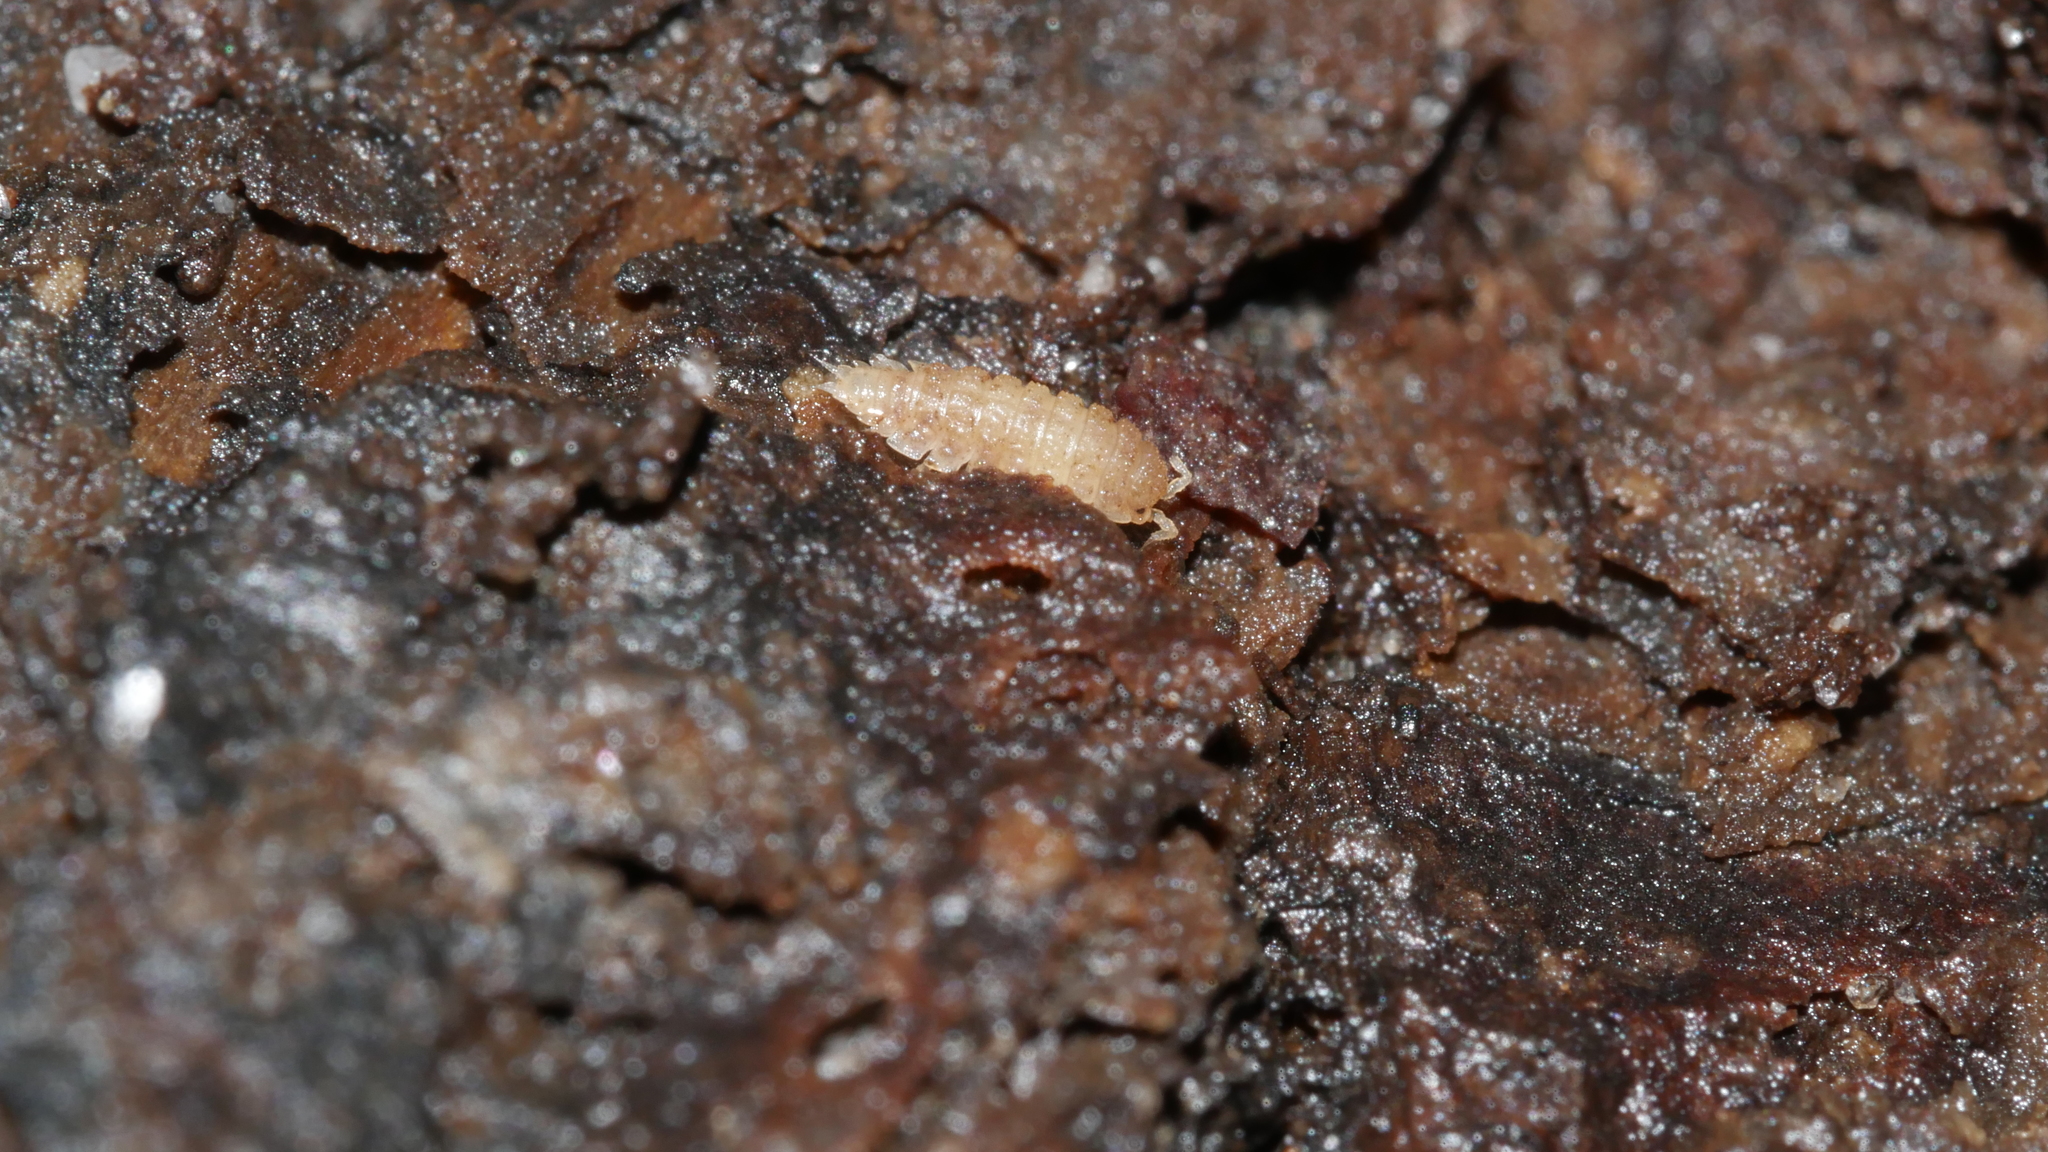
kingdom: Animalia
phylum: Arthropoda
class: Malacostraca
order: Isopoda
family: Trichoniscidae
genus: Haplophthalmus
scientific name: Haplophthalmus danicus
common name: Pillbug
